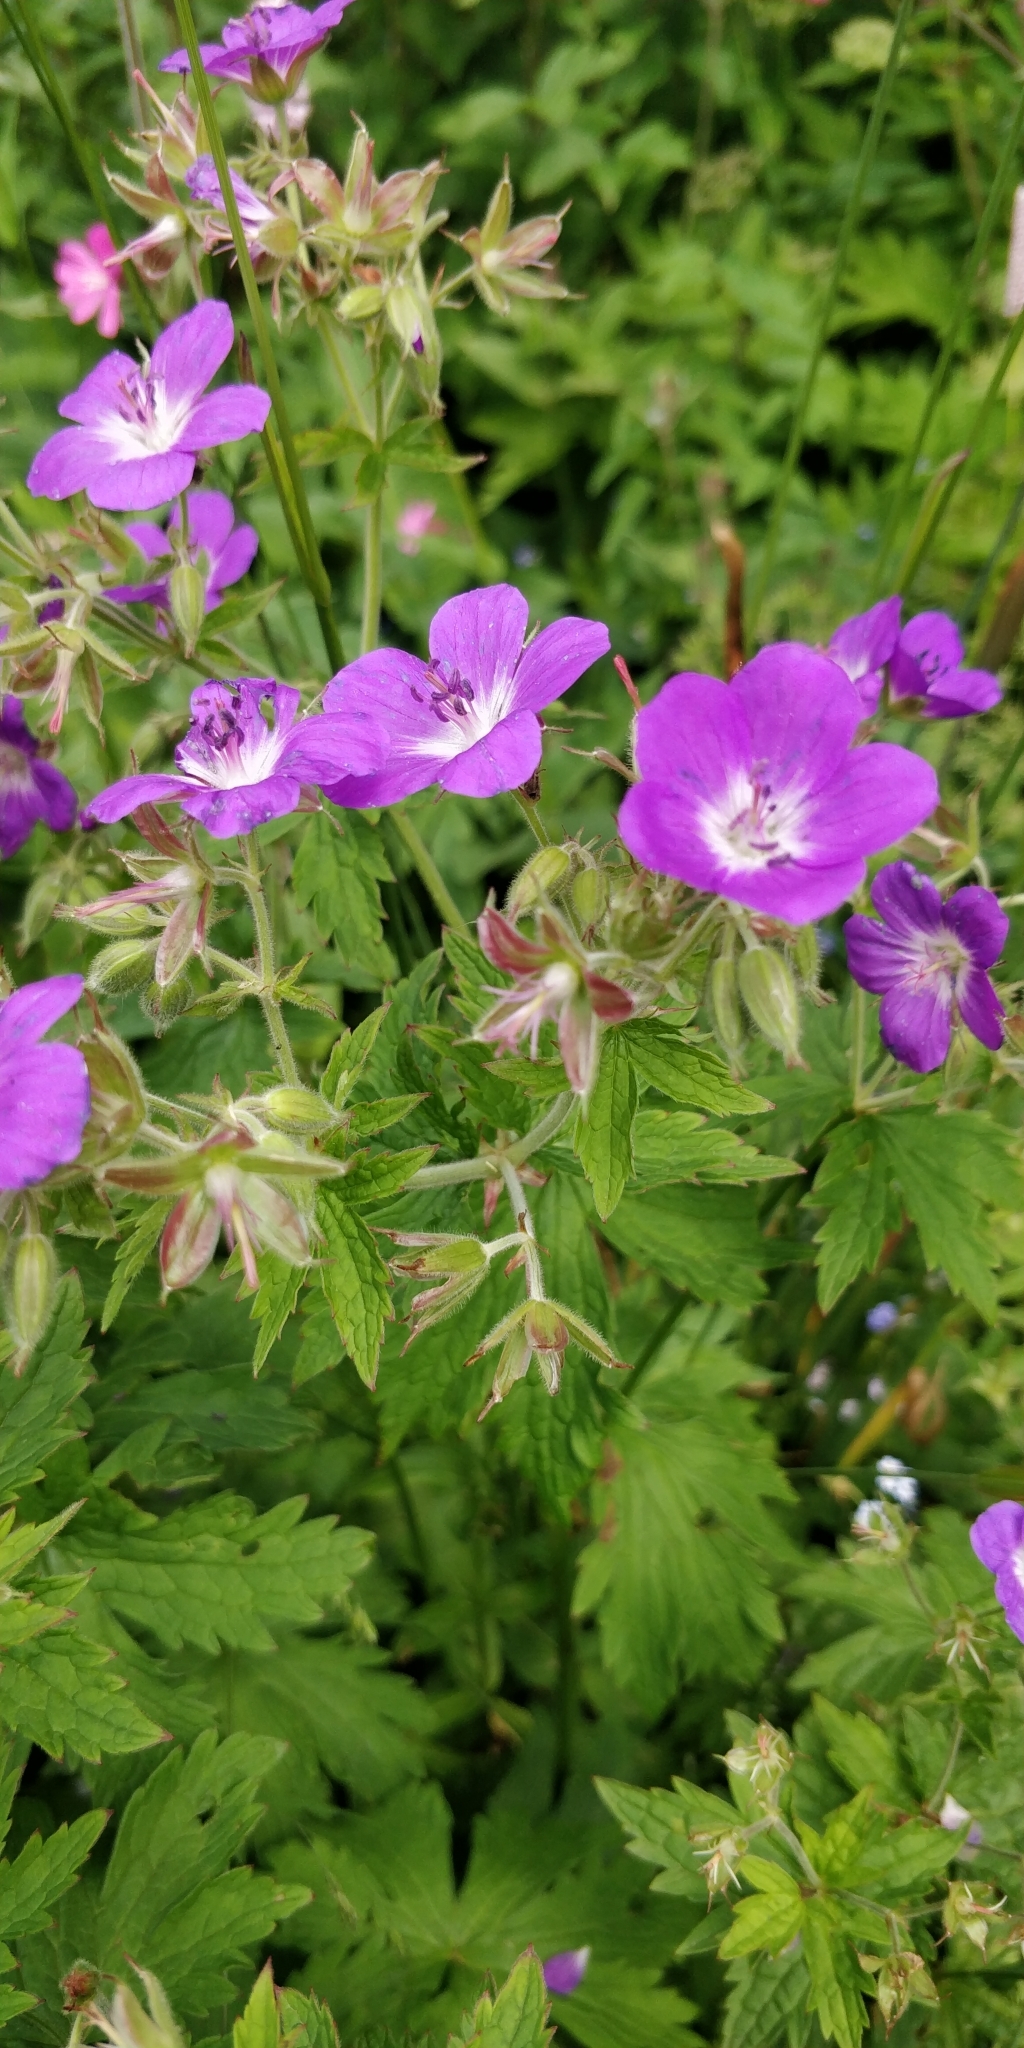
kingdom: Plantae
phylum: Tracheophyta
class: Magnoliopsida
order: Geraniales
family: Geraniaceae
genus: Geranium
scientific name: Geranium sylvaticum
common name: Wood crane's-bill
